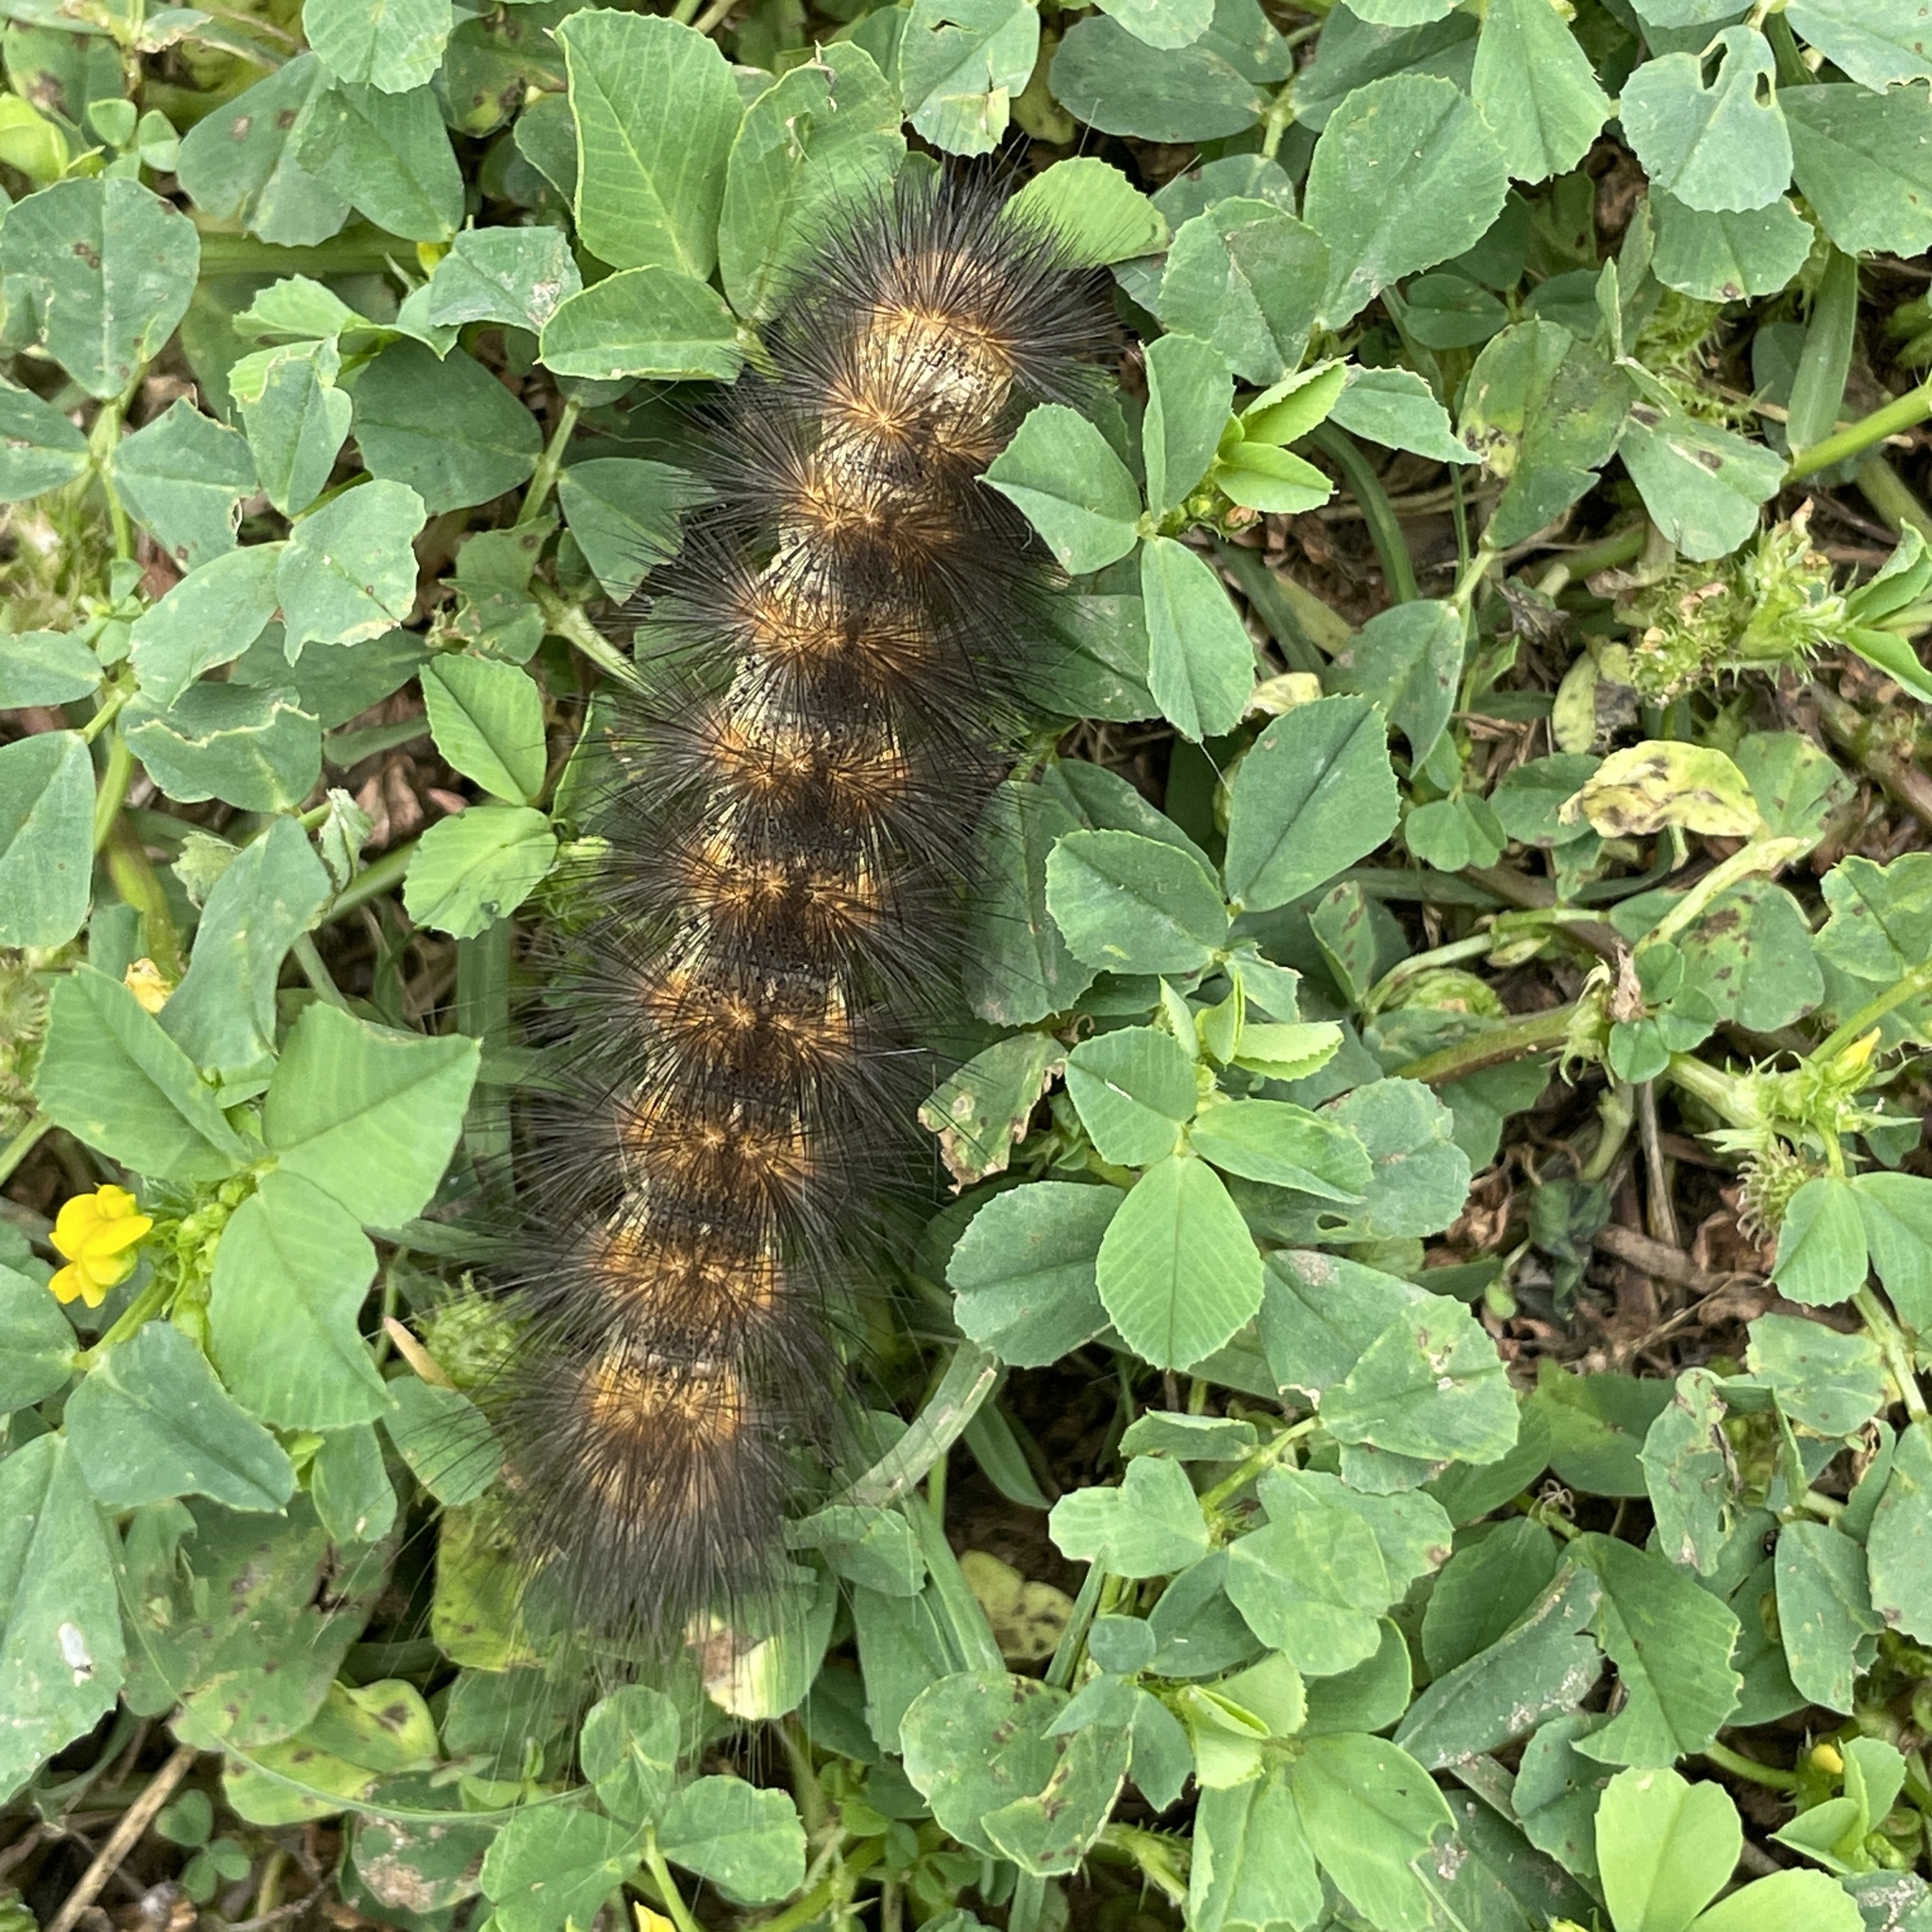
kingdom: Animalia
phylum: Arthropoda
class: Insecta
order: Lepidoptera
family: Erebidae
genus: Estigmene
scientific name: Estigmene acrea
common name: Salt marsh moth
